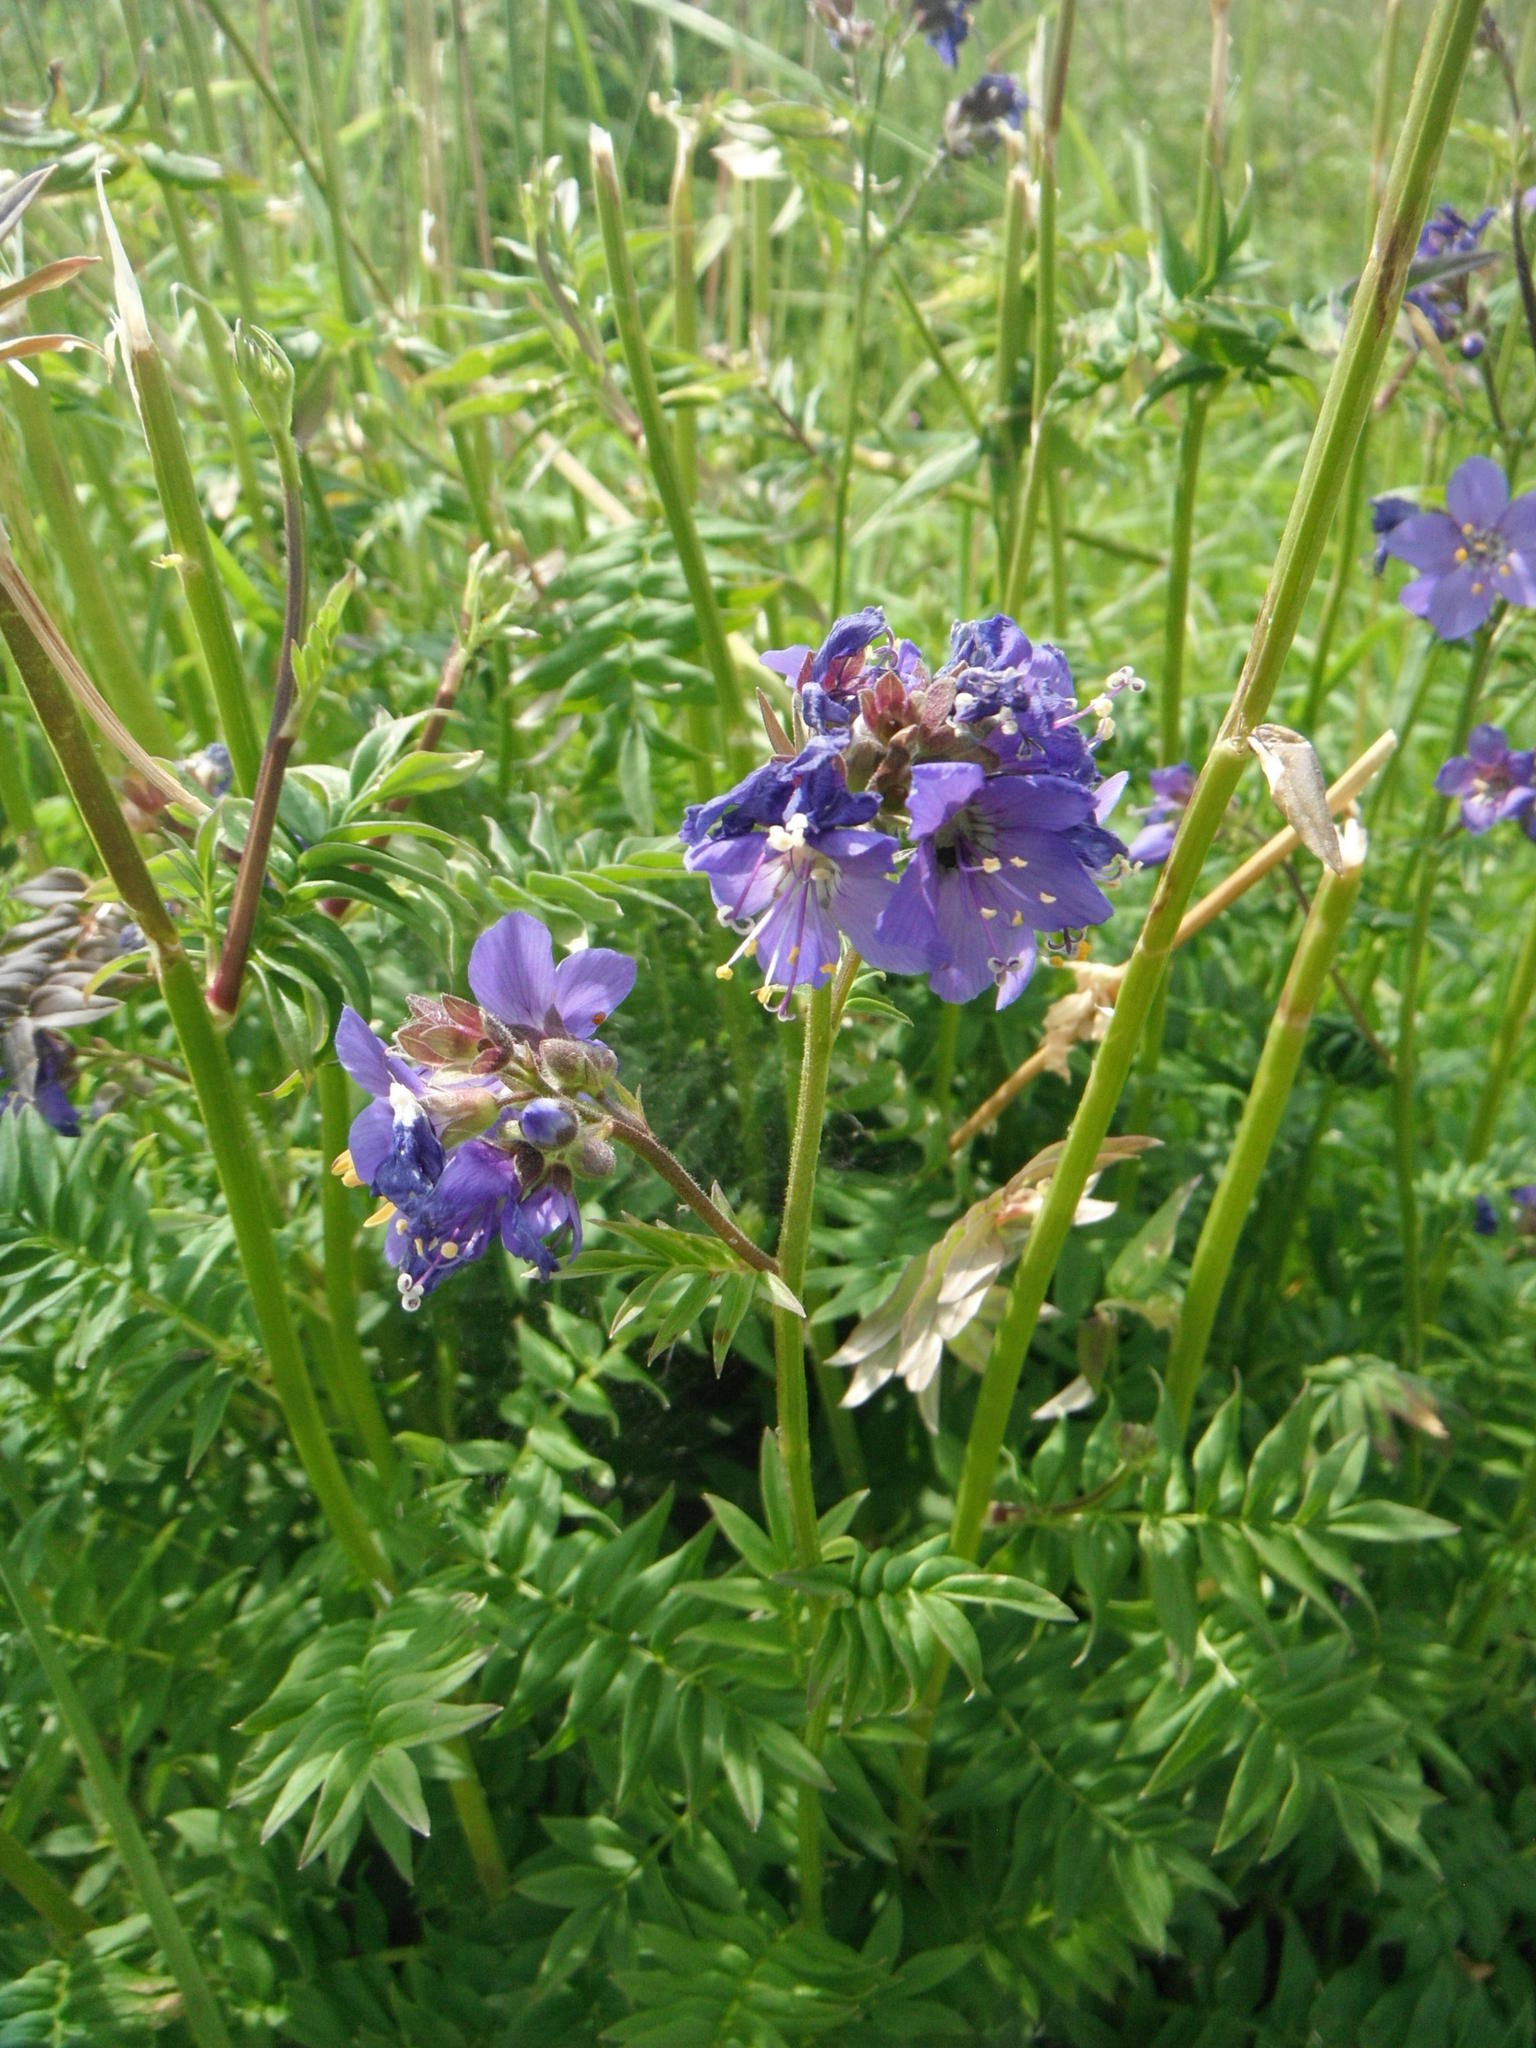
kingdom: Plantae
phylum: Tracheophyta
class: Magnoliopsida
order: Ericales
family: Polemoniaceae
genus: Polemonium
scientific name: Polemonium caeruleum
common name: Jacob's-ladder
